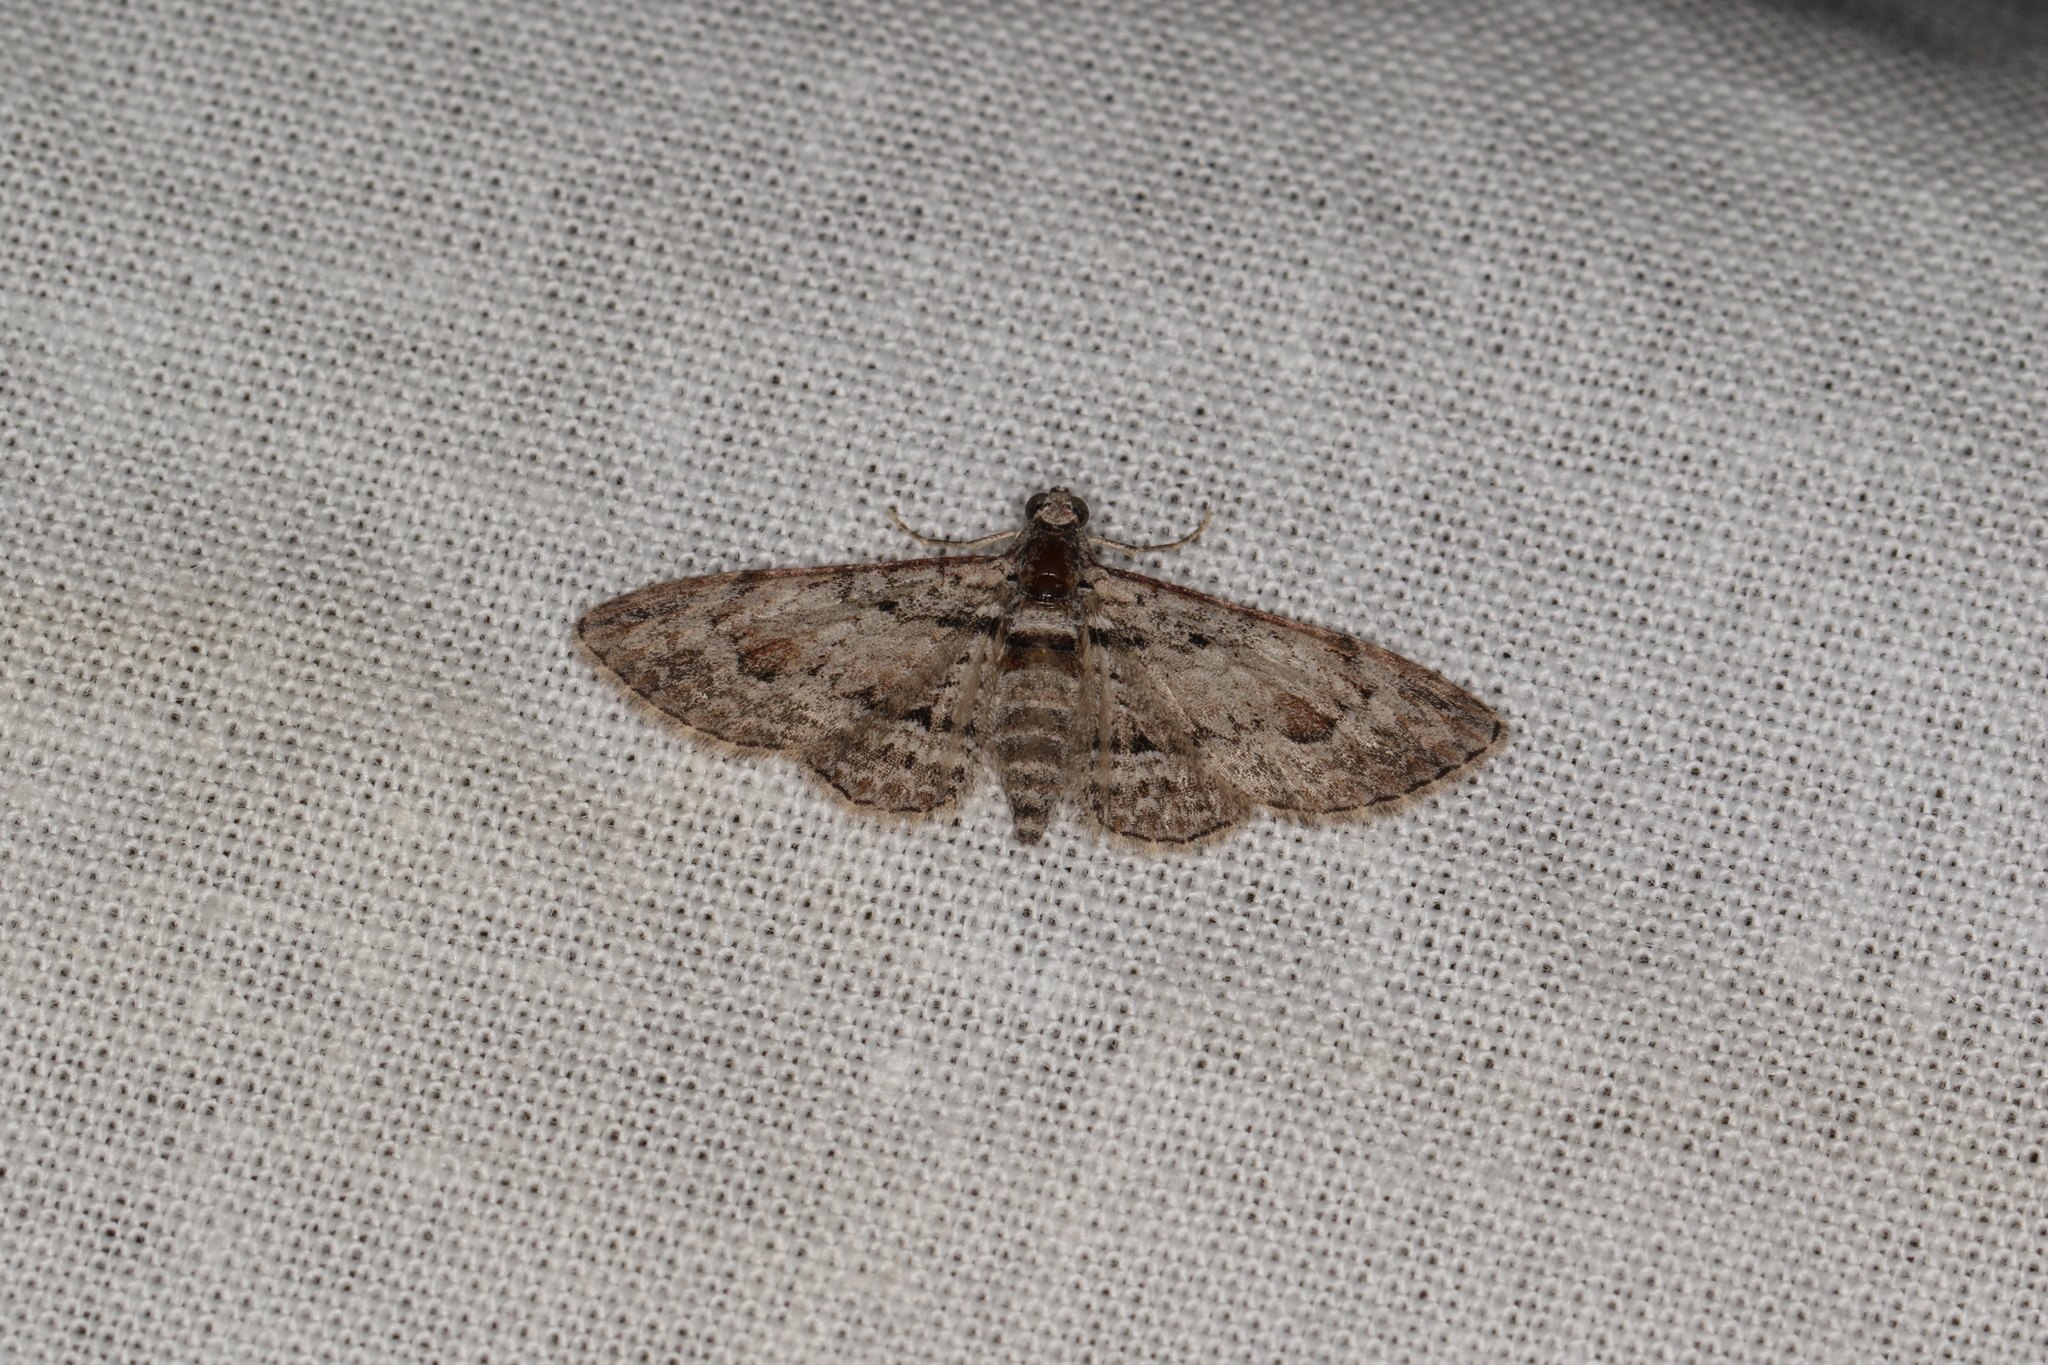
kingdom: Animalia
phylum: Arthropoda
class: Insecta
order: Lepidoptera
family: Geometridae
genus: Chloroclystis
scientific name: Chloroclystis insigillata
